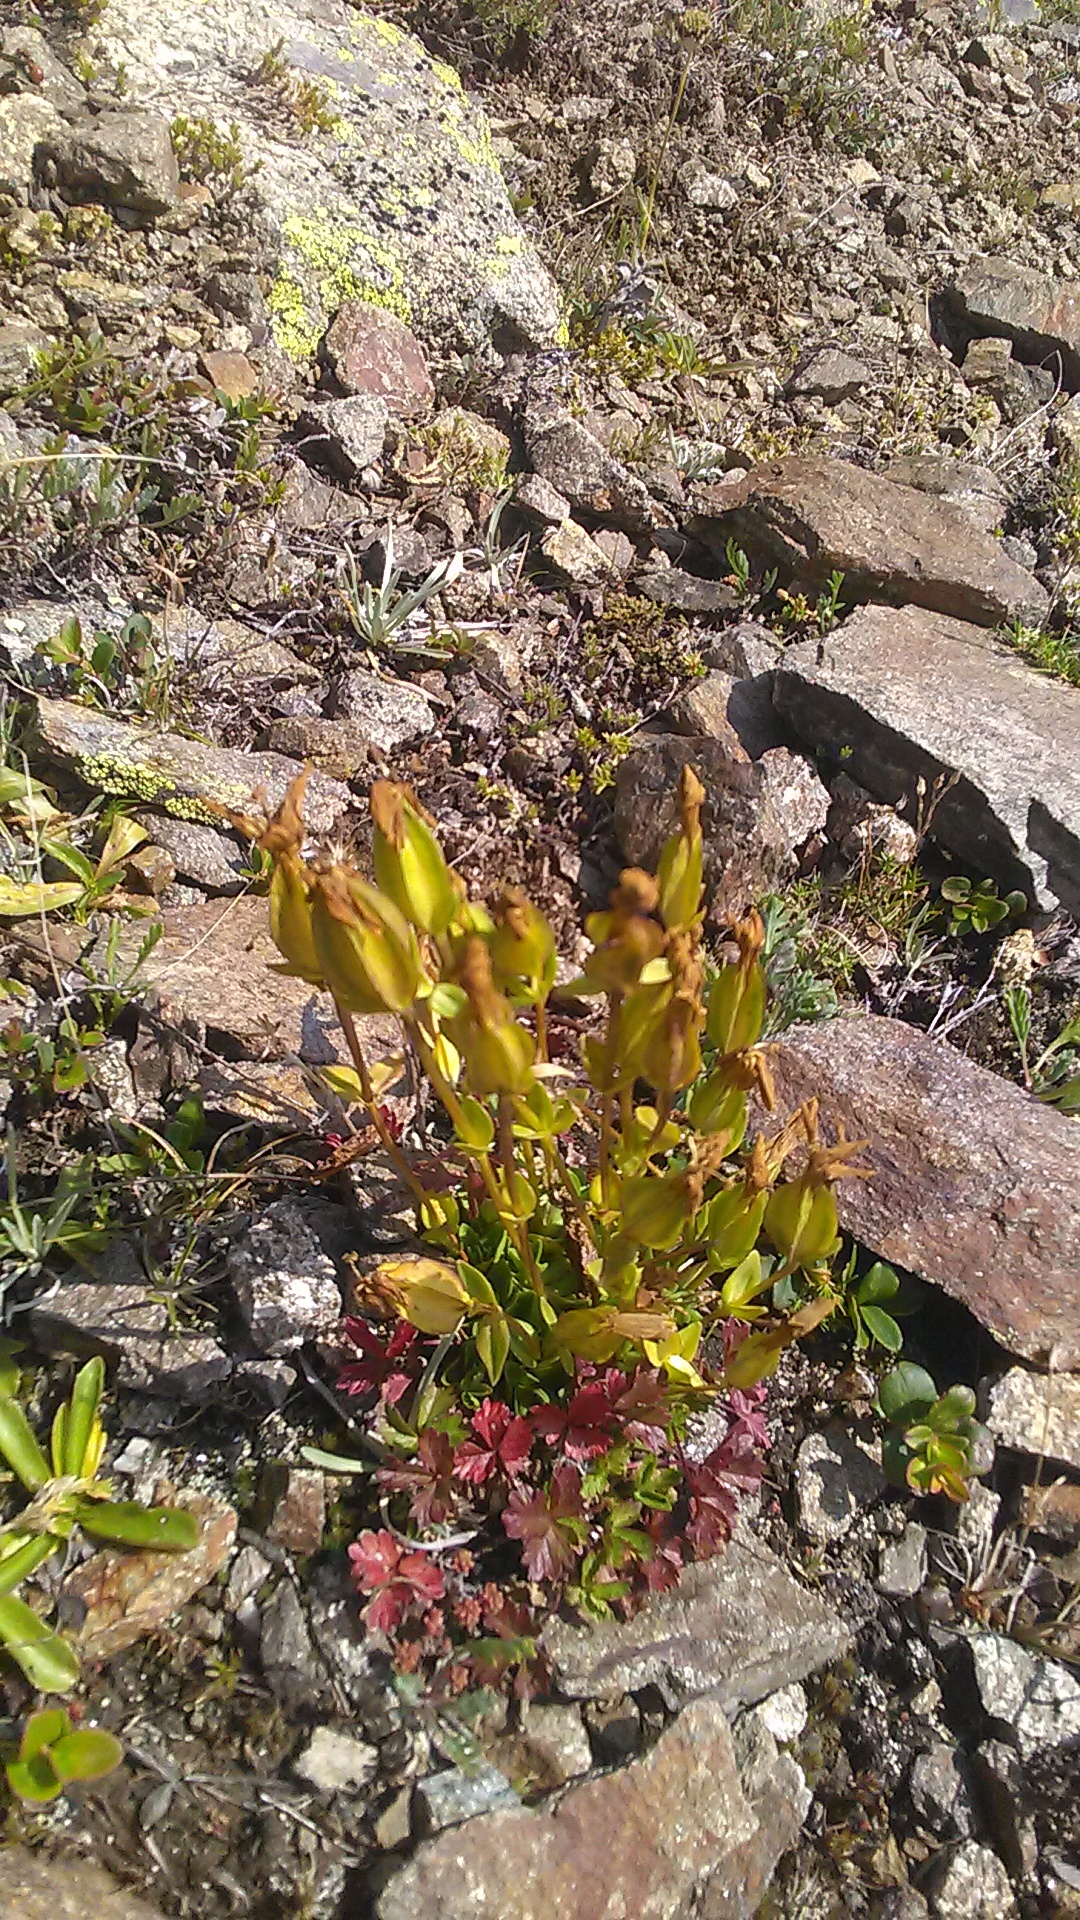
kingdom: Plantae
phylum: Tracheophyta
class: Magnoliopsida
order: Gentianales
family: Gentianaceae
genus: Gentiana
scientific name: Gentiana verna
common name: Spring gentian
